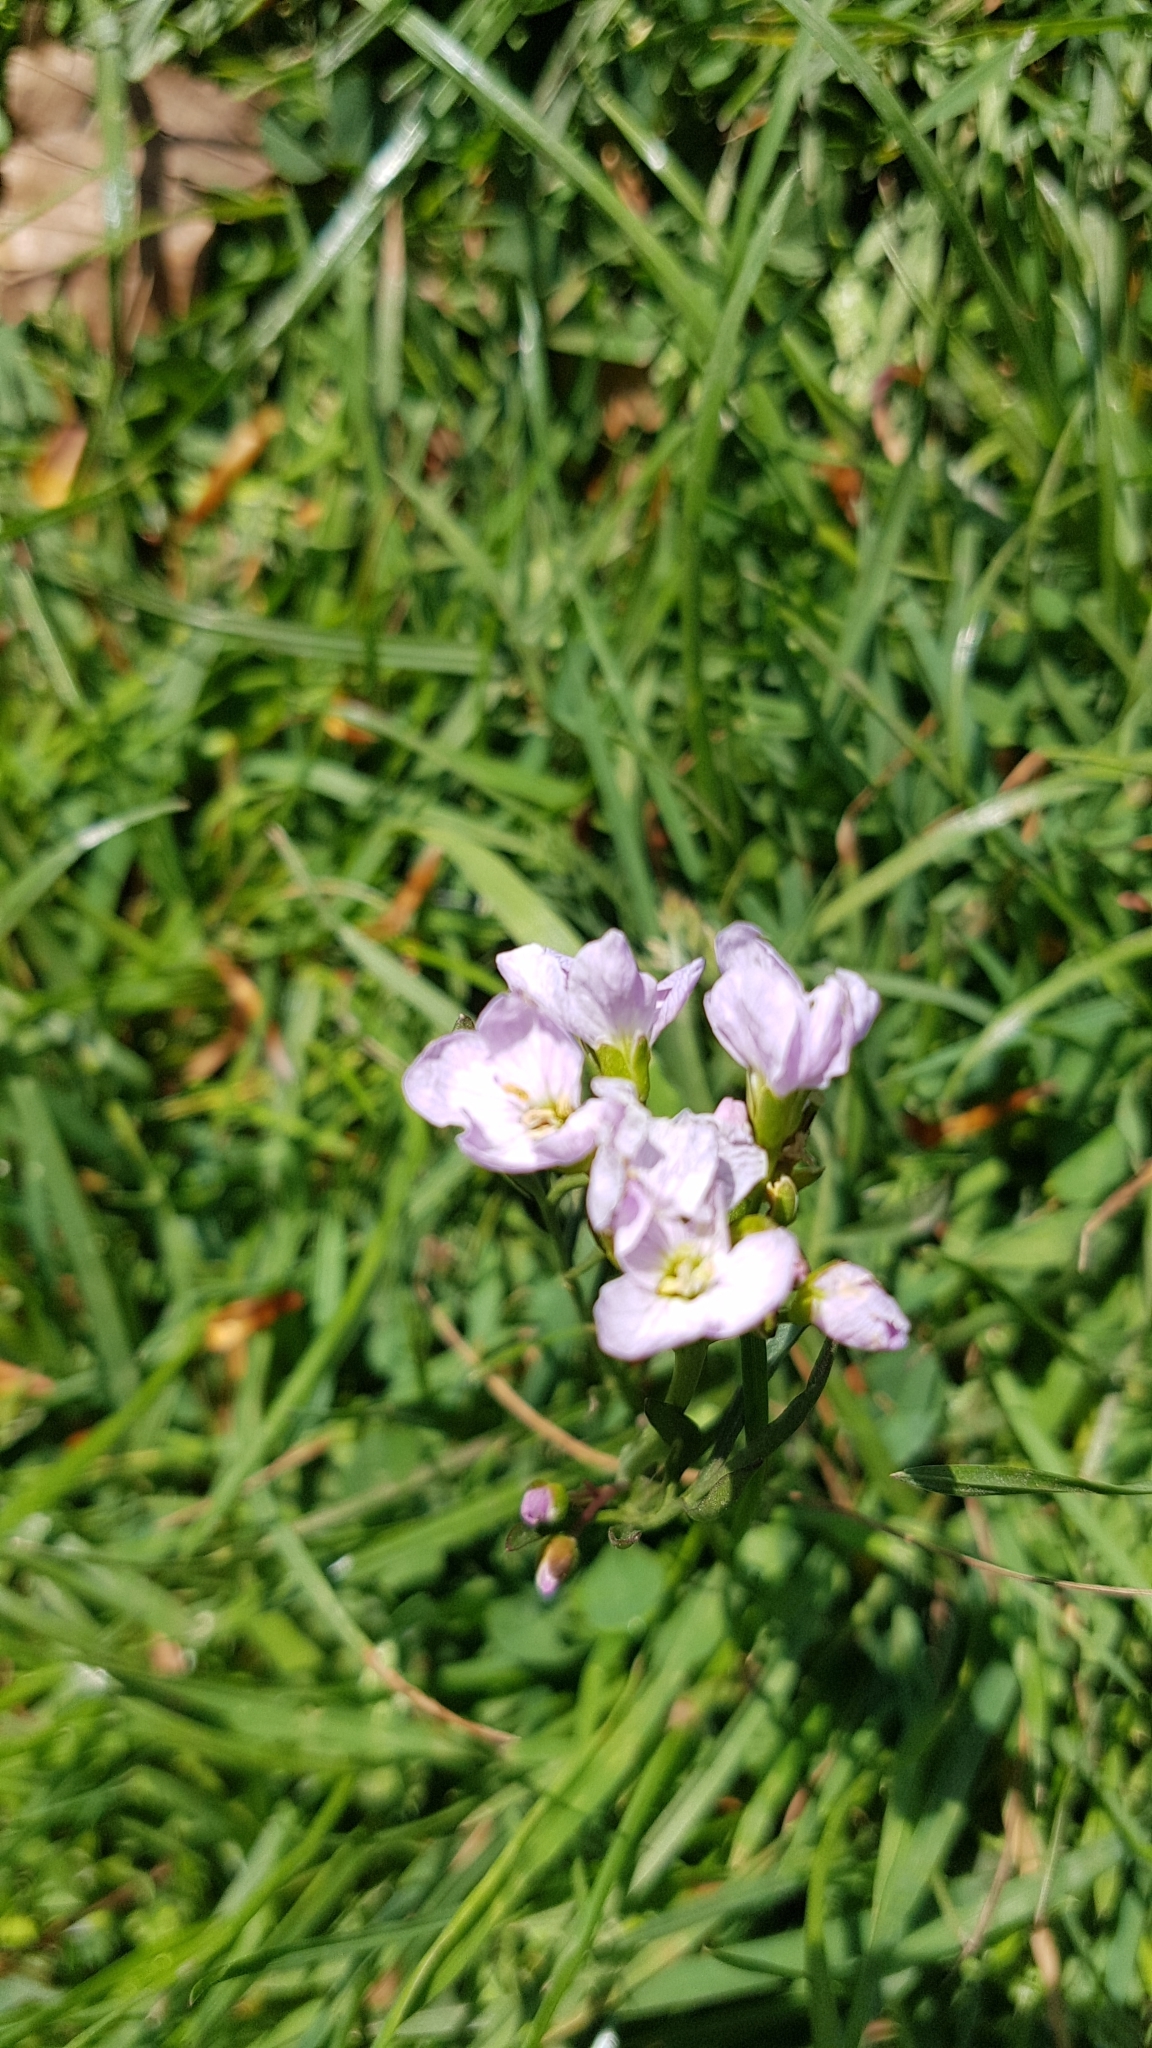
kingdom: Plantae
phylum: Tracheophyta
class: Magnoliopsida
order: Brassicales
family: Brassicaceae
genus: Cardamine
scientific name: Cardamine pratensis
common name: Cuckoo flower
